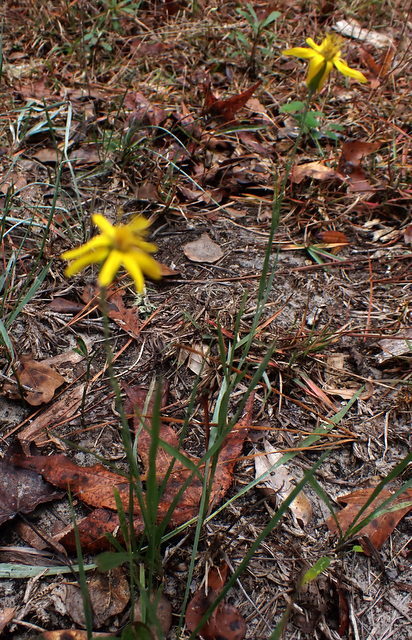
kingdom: Plantae
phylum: Tracheophyta
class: Magnoliopsida
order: Asterales
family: Asteraceae
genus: Pityopsis
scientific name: Pityopsis aspera
